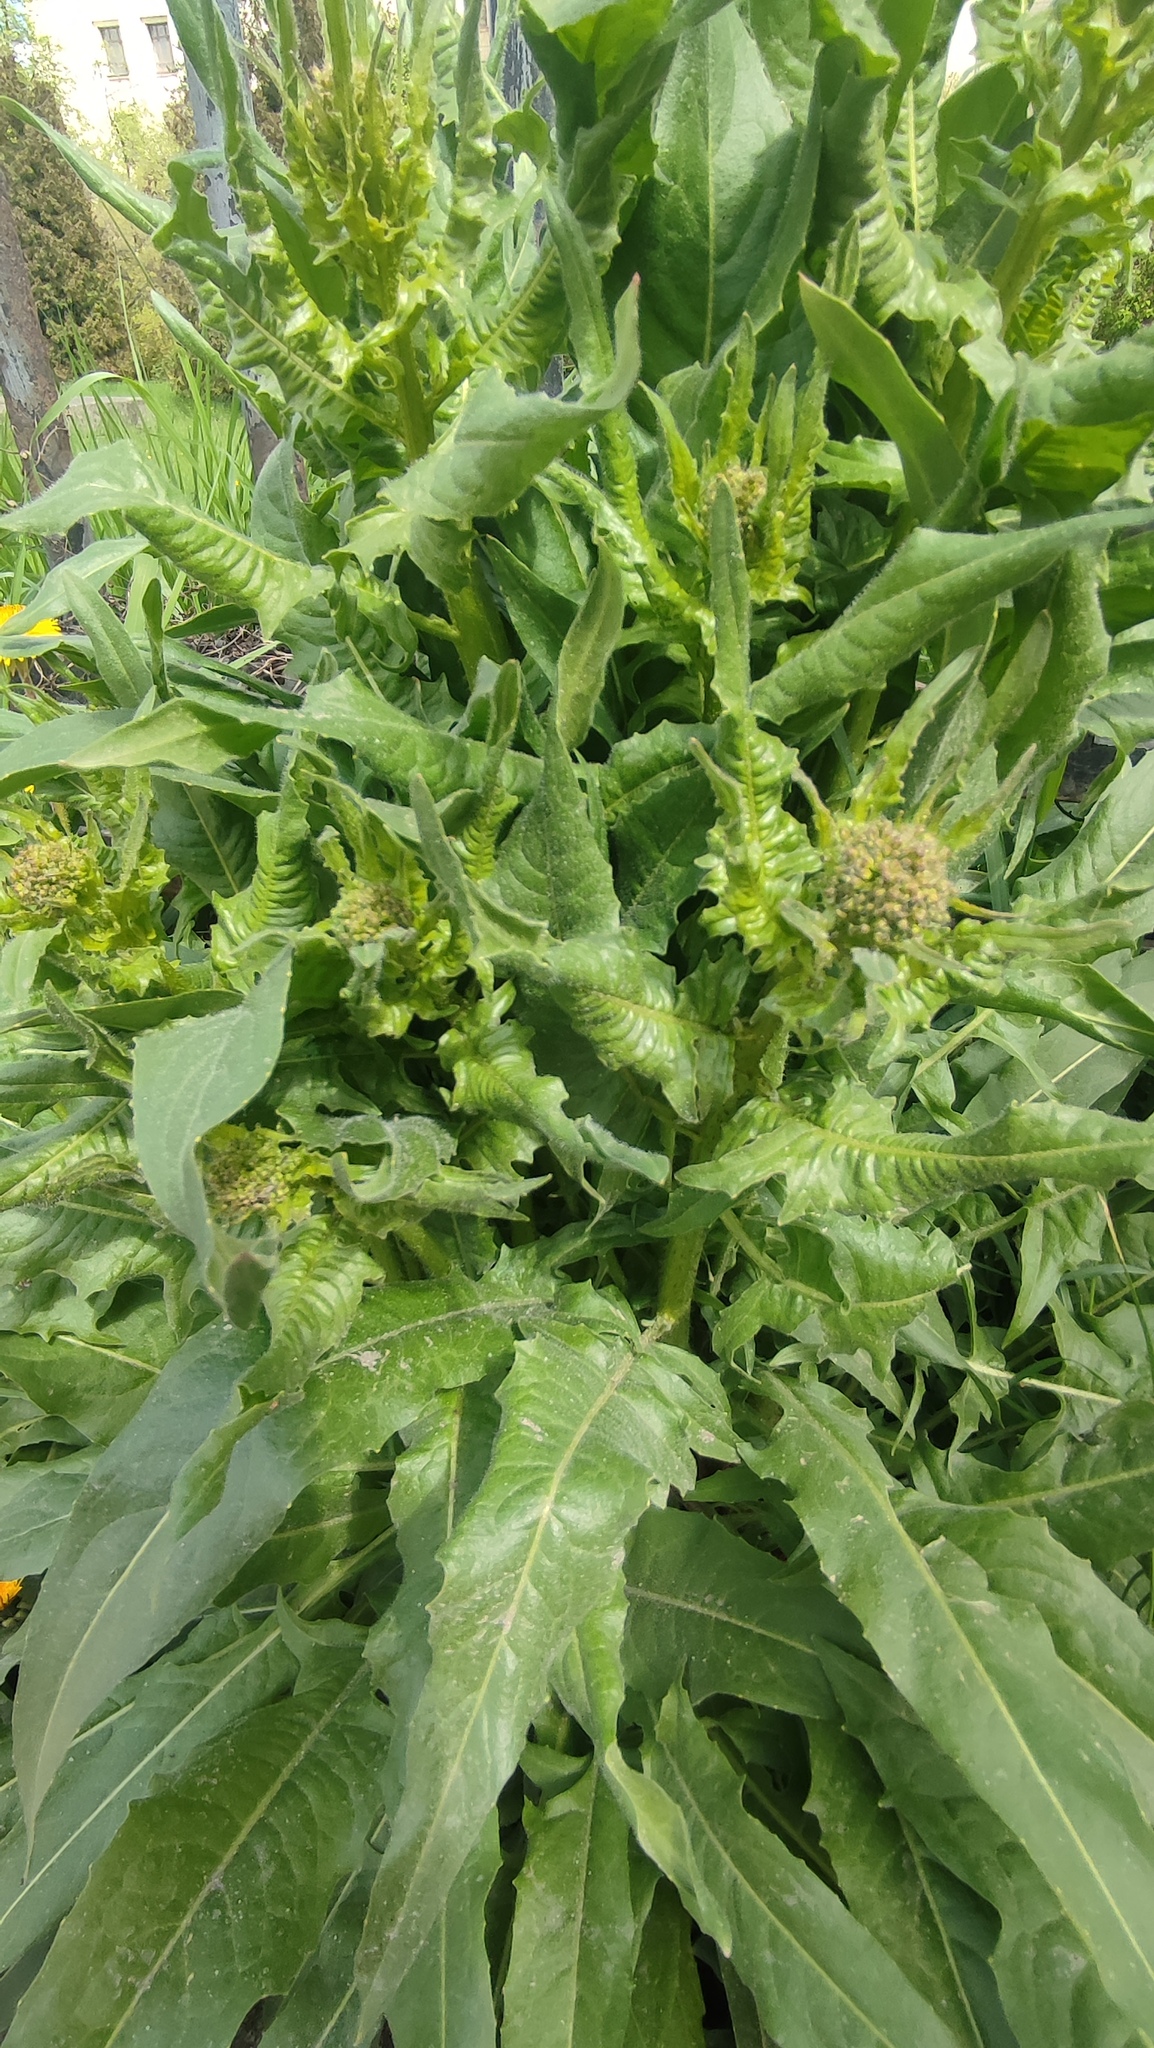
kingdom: Plantae
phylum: Tracheophyta
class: Magnoliopsida
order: Brassicales
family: Brassicaceae
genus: Bunias
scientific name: Bunias orientalis
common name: Warty-cabbage
